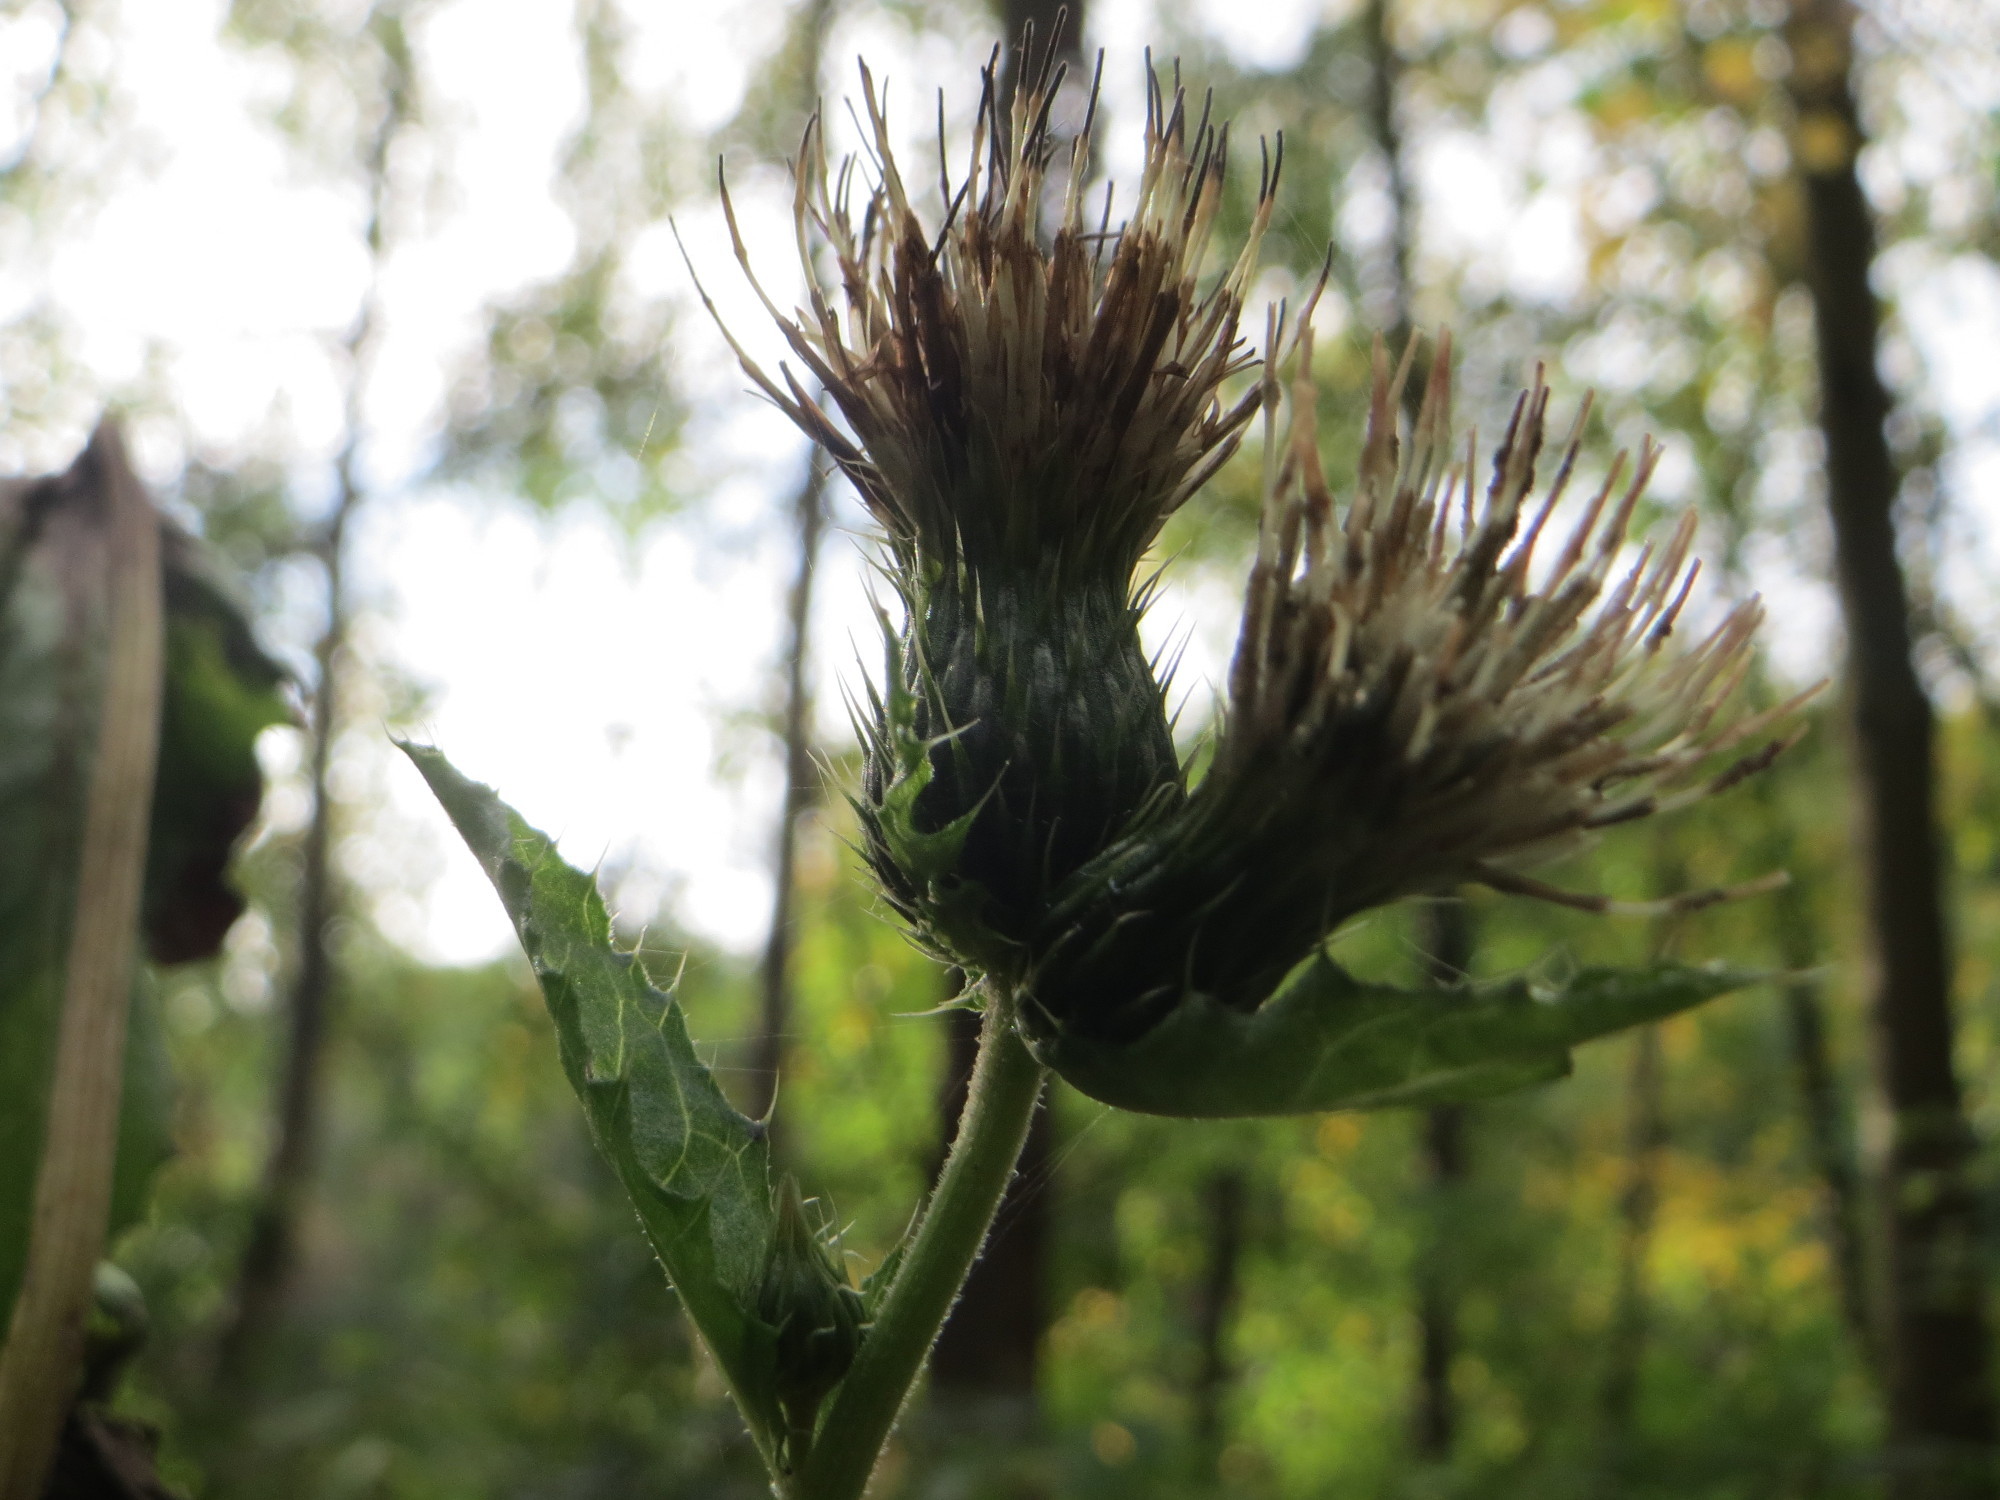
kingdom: Plantae
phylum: Tracheophyta
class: Magnoliopsida
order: Asterales
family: Asteraceae
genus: Cirsium
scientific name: Cirsium oleraceum
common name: Cabbage thistle
